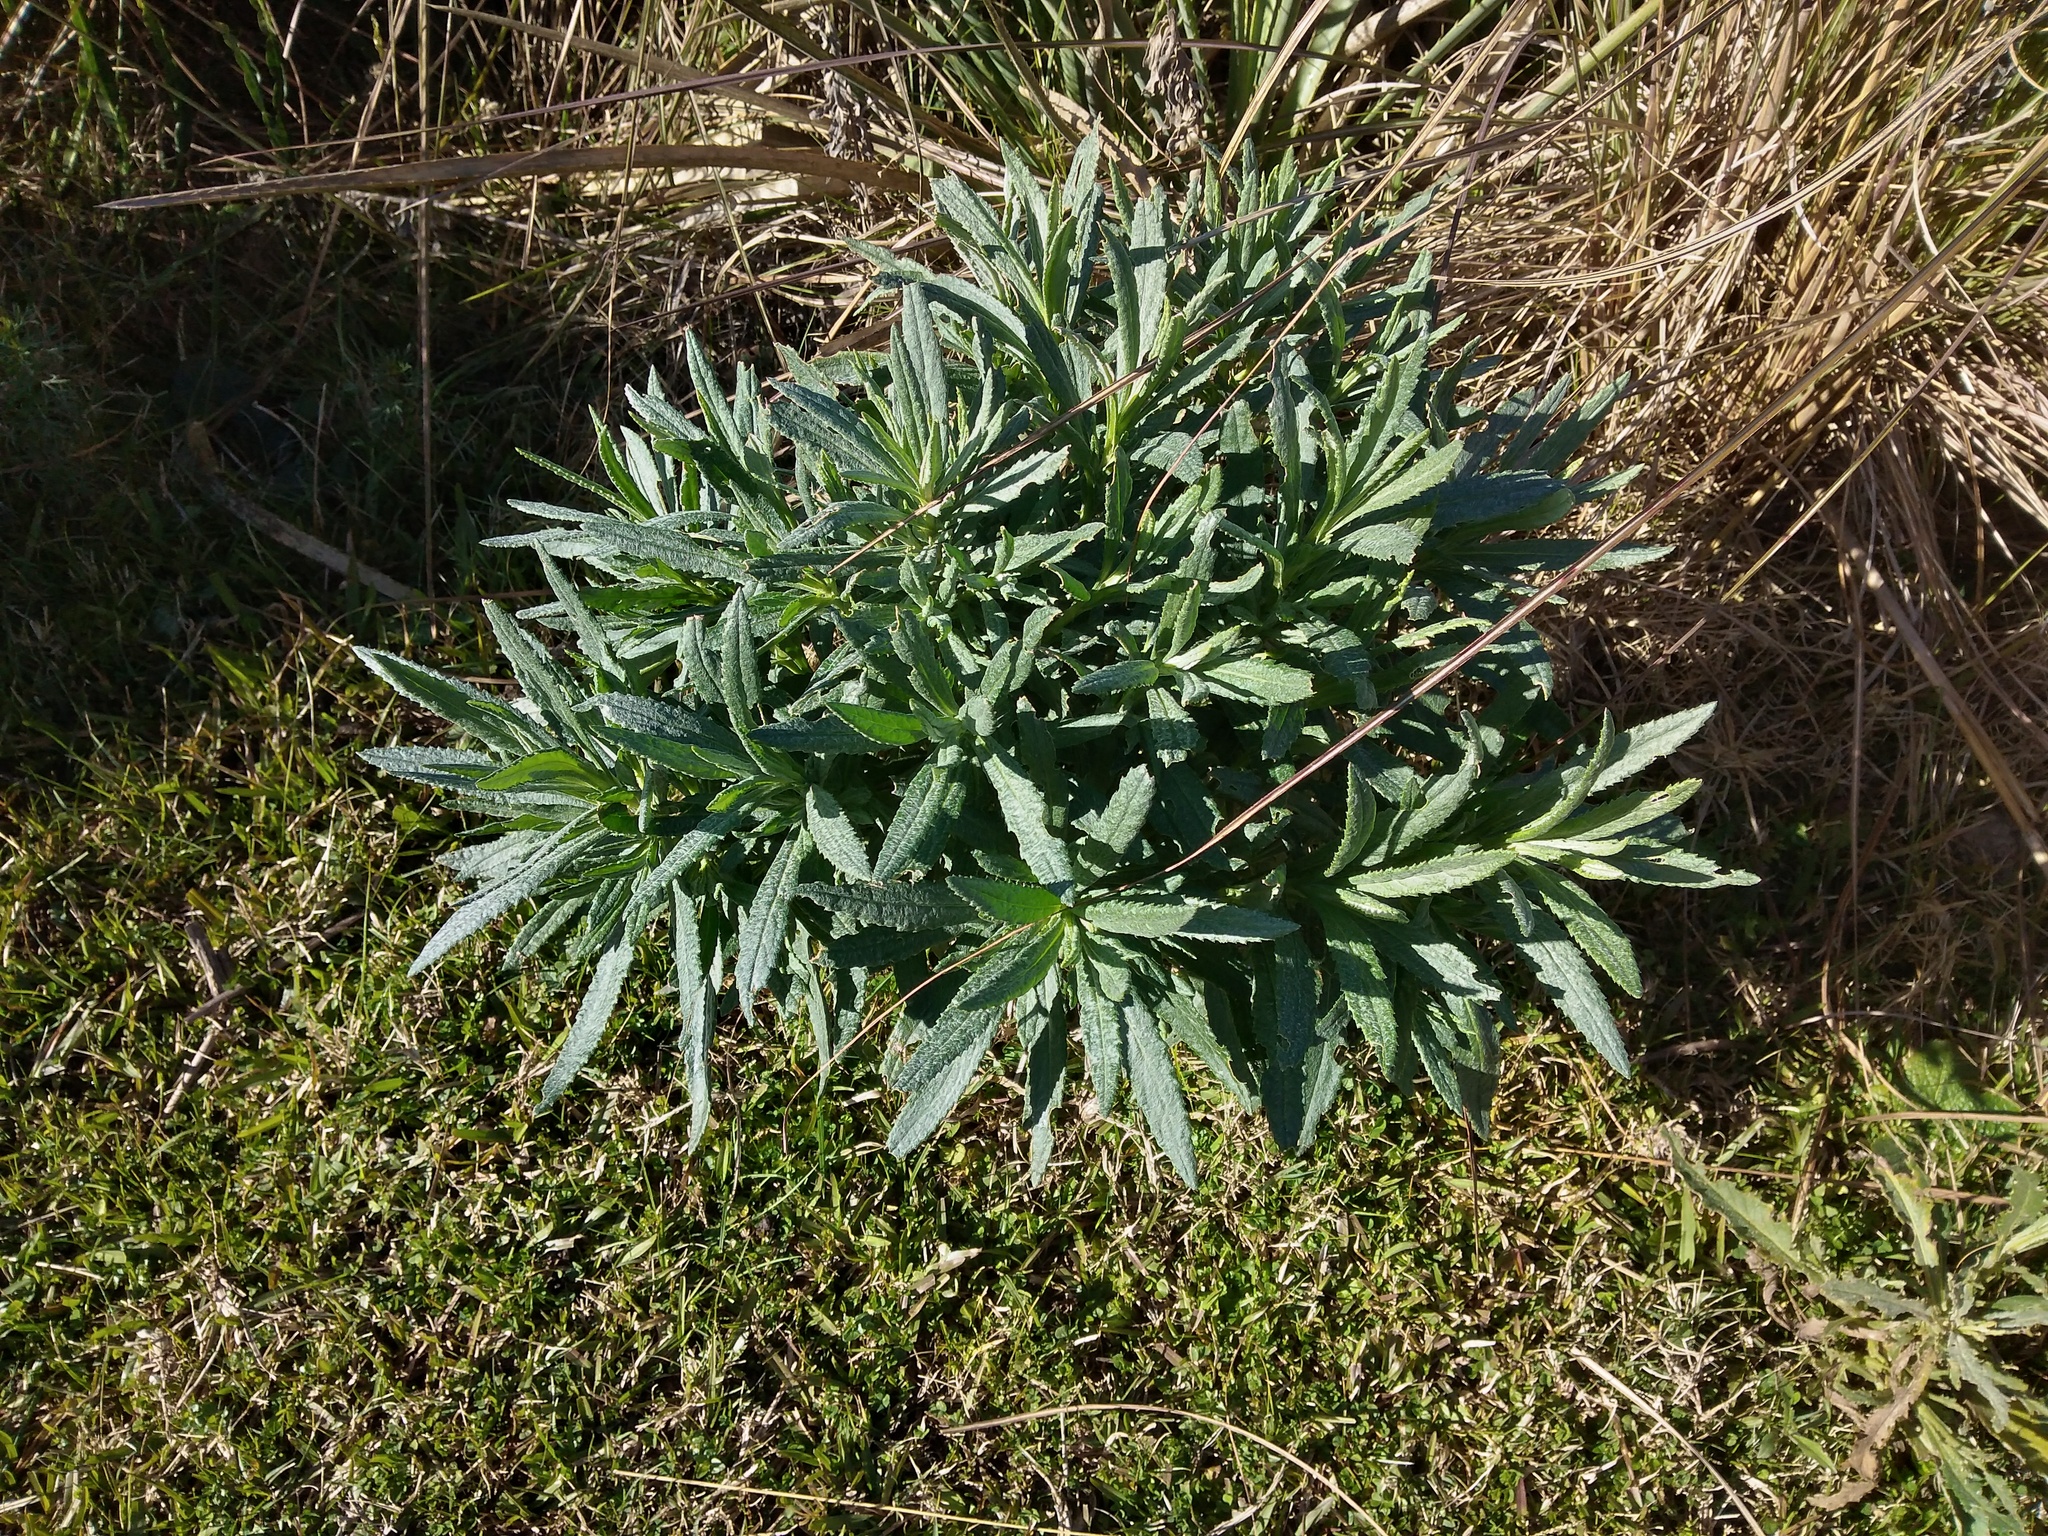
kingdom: Plantae
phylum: Tracheophyta
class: Magnoliopsida
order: Asterales
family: Asteraceae
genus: Senecio
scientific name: Senecio heterotrichius
